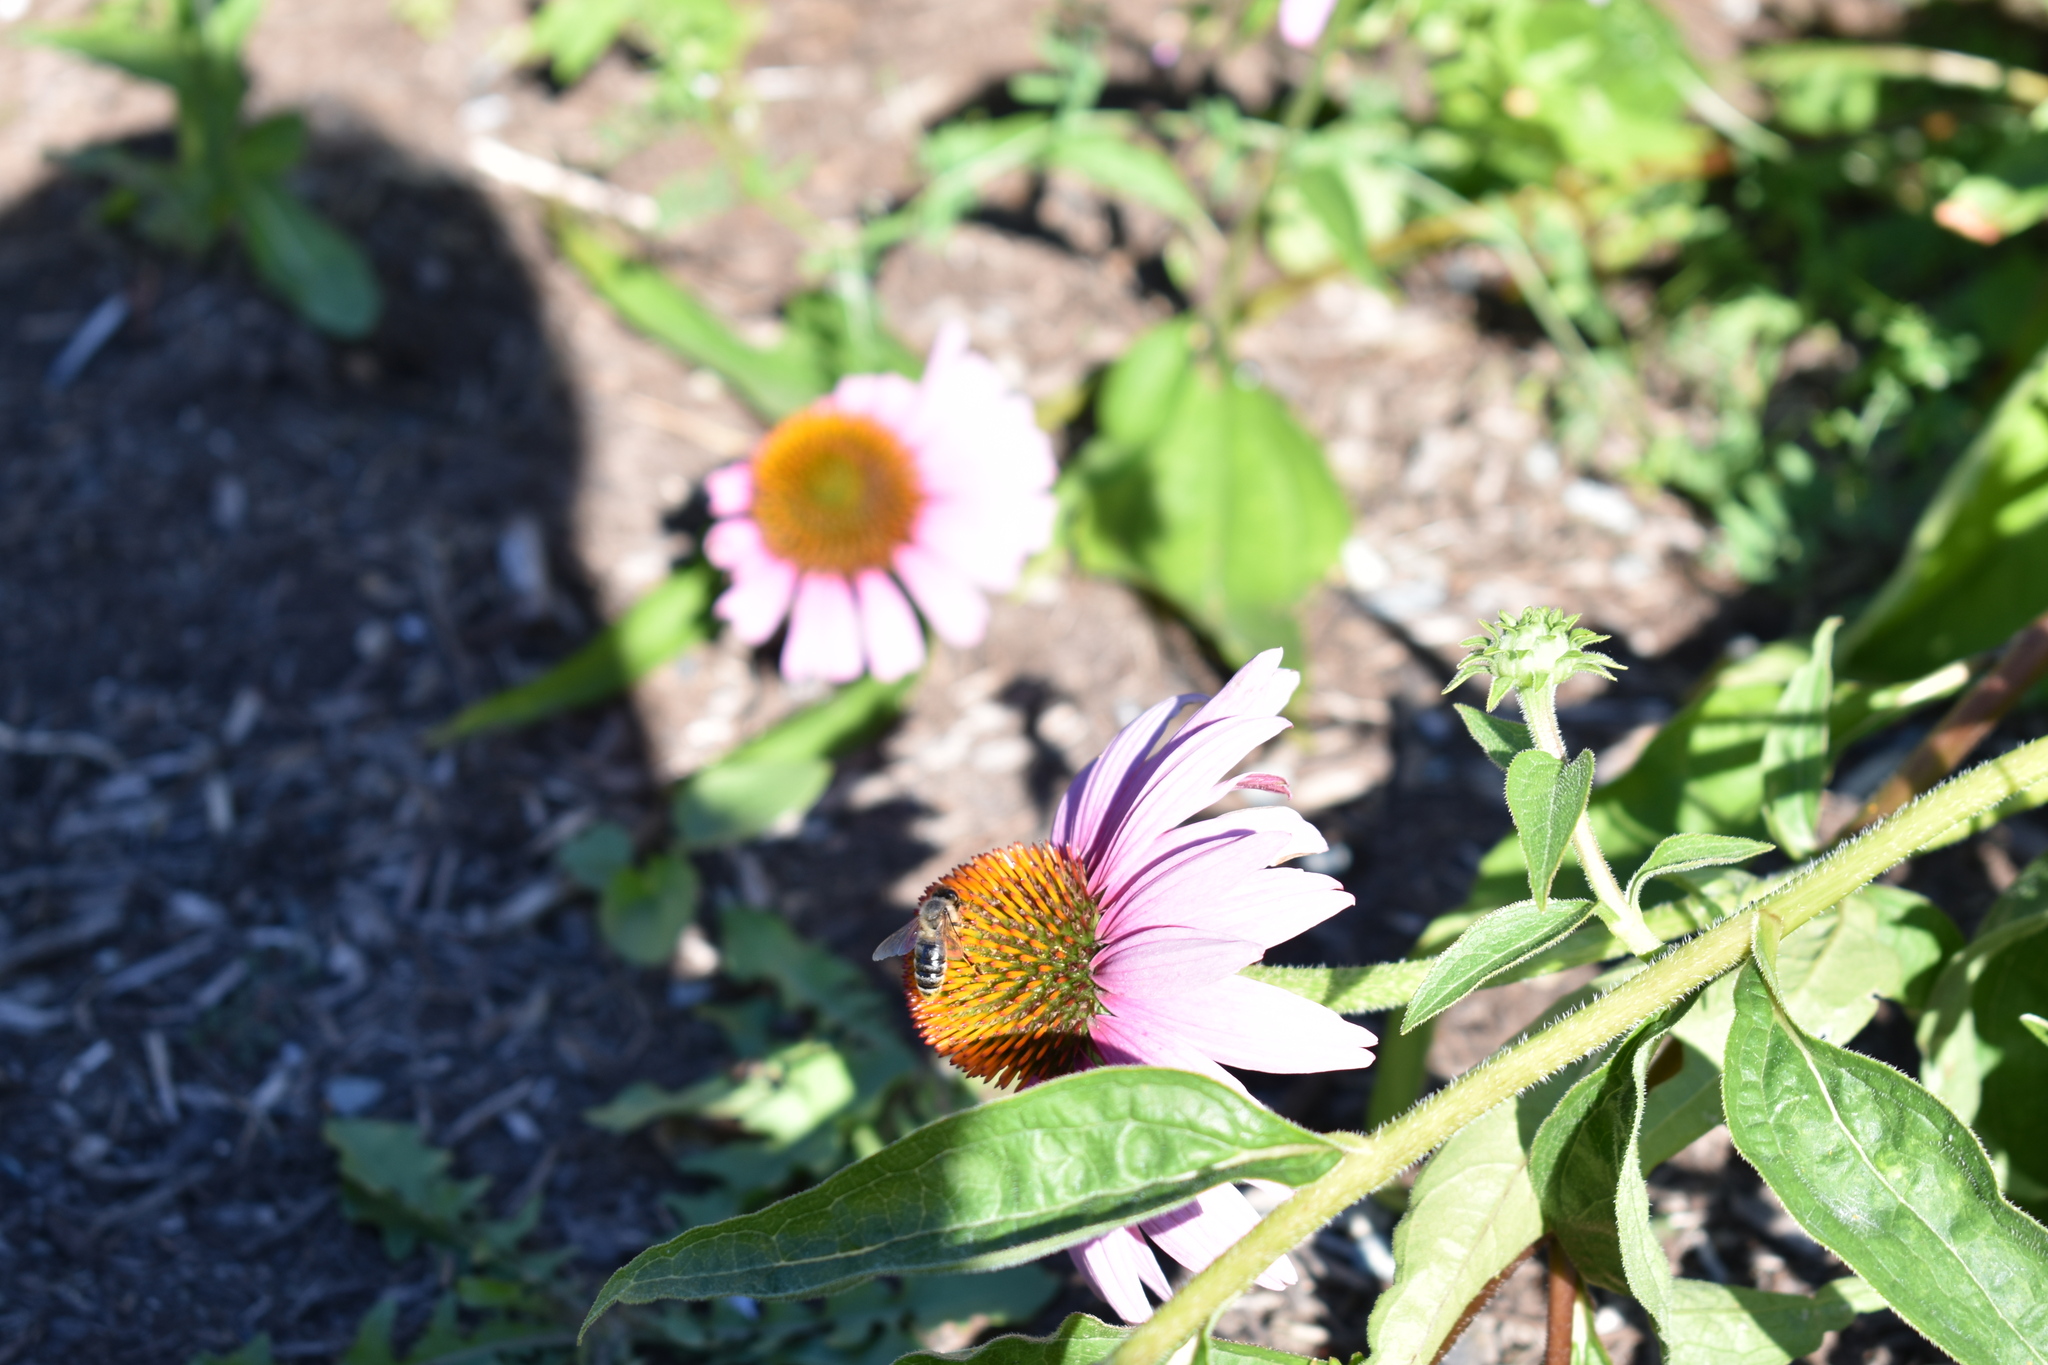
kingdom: Animalia
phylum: Arthropoda
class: Insecta
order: Hymenoptera
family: Apidae
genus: Apis
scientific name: Apis mellifera
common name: Honey bee
